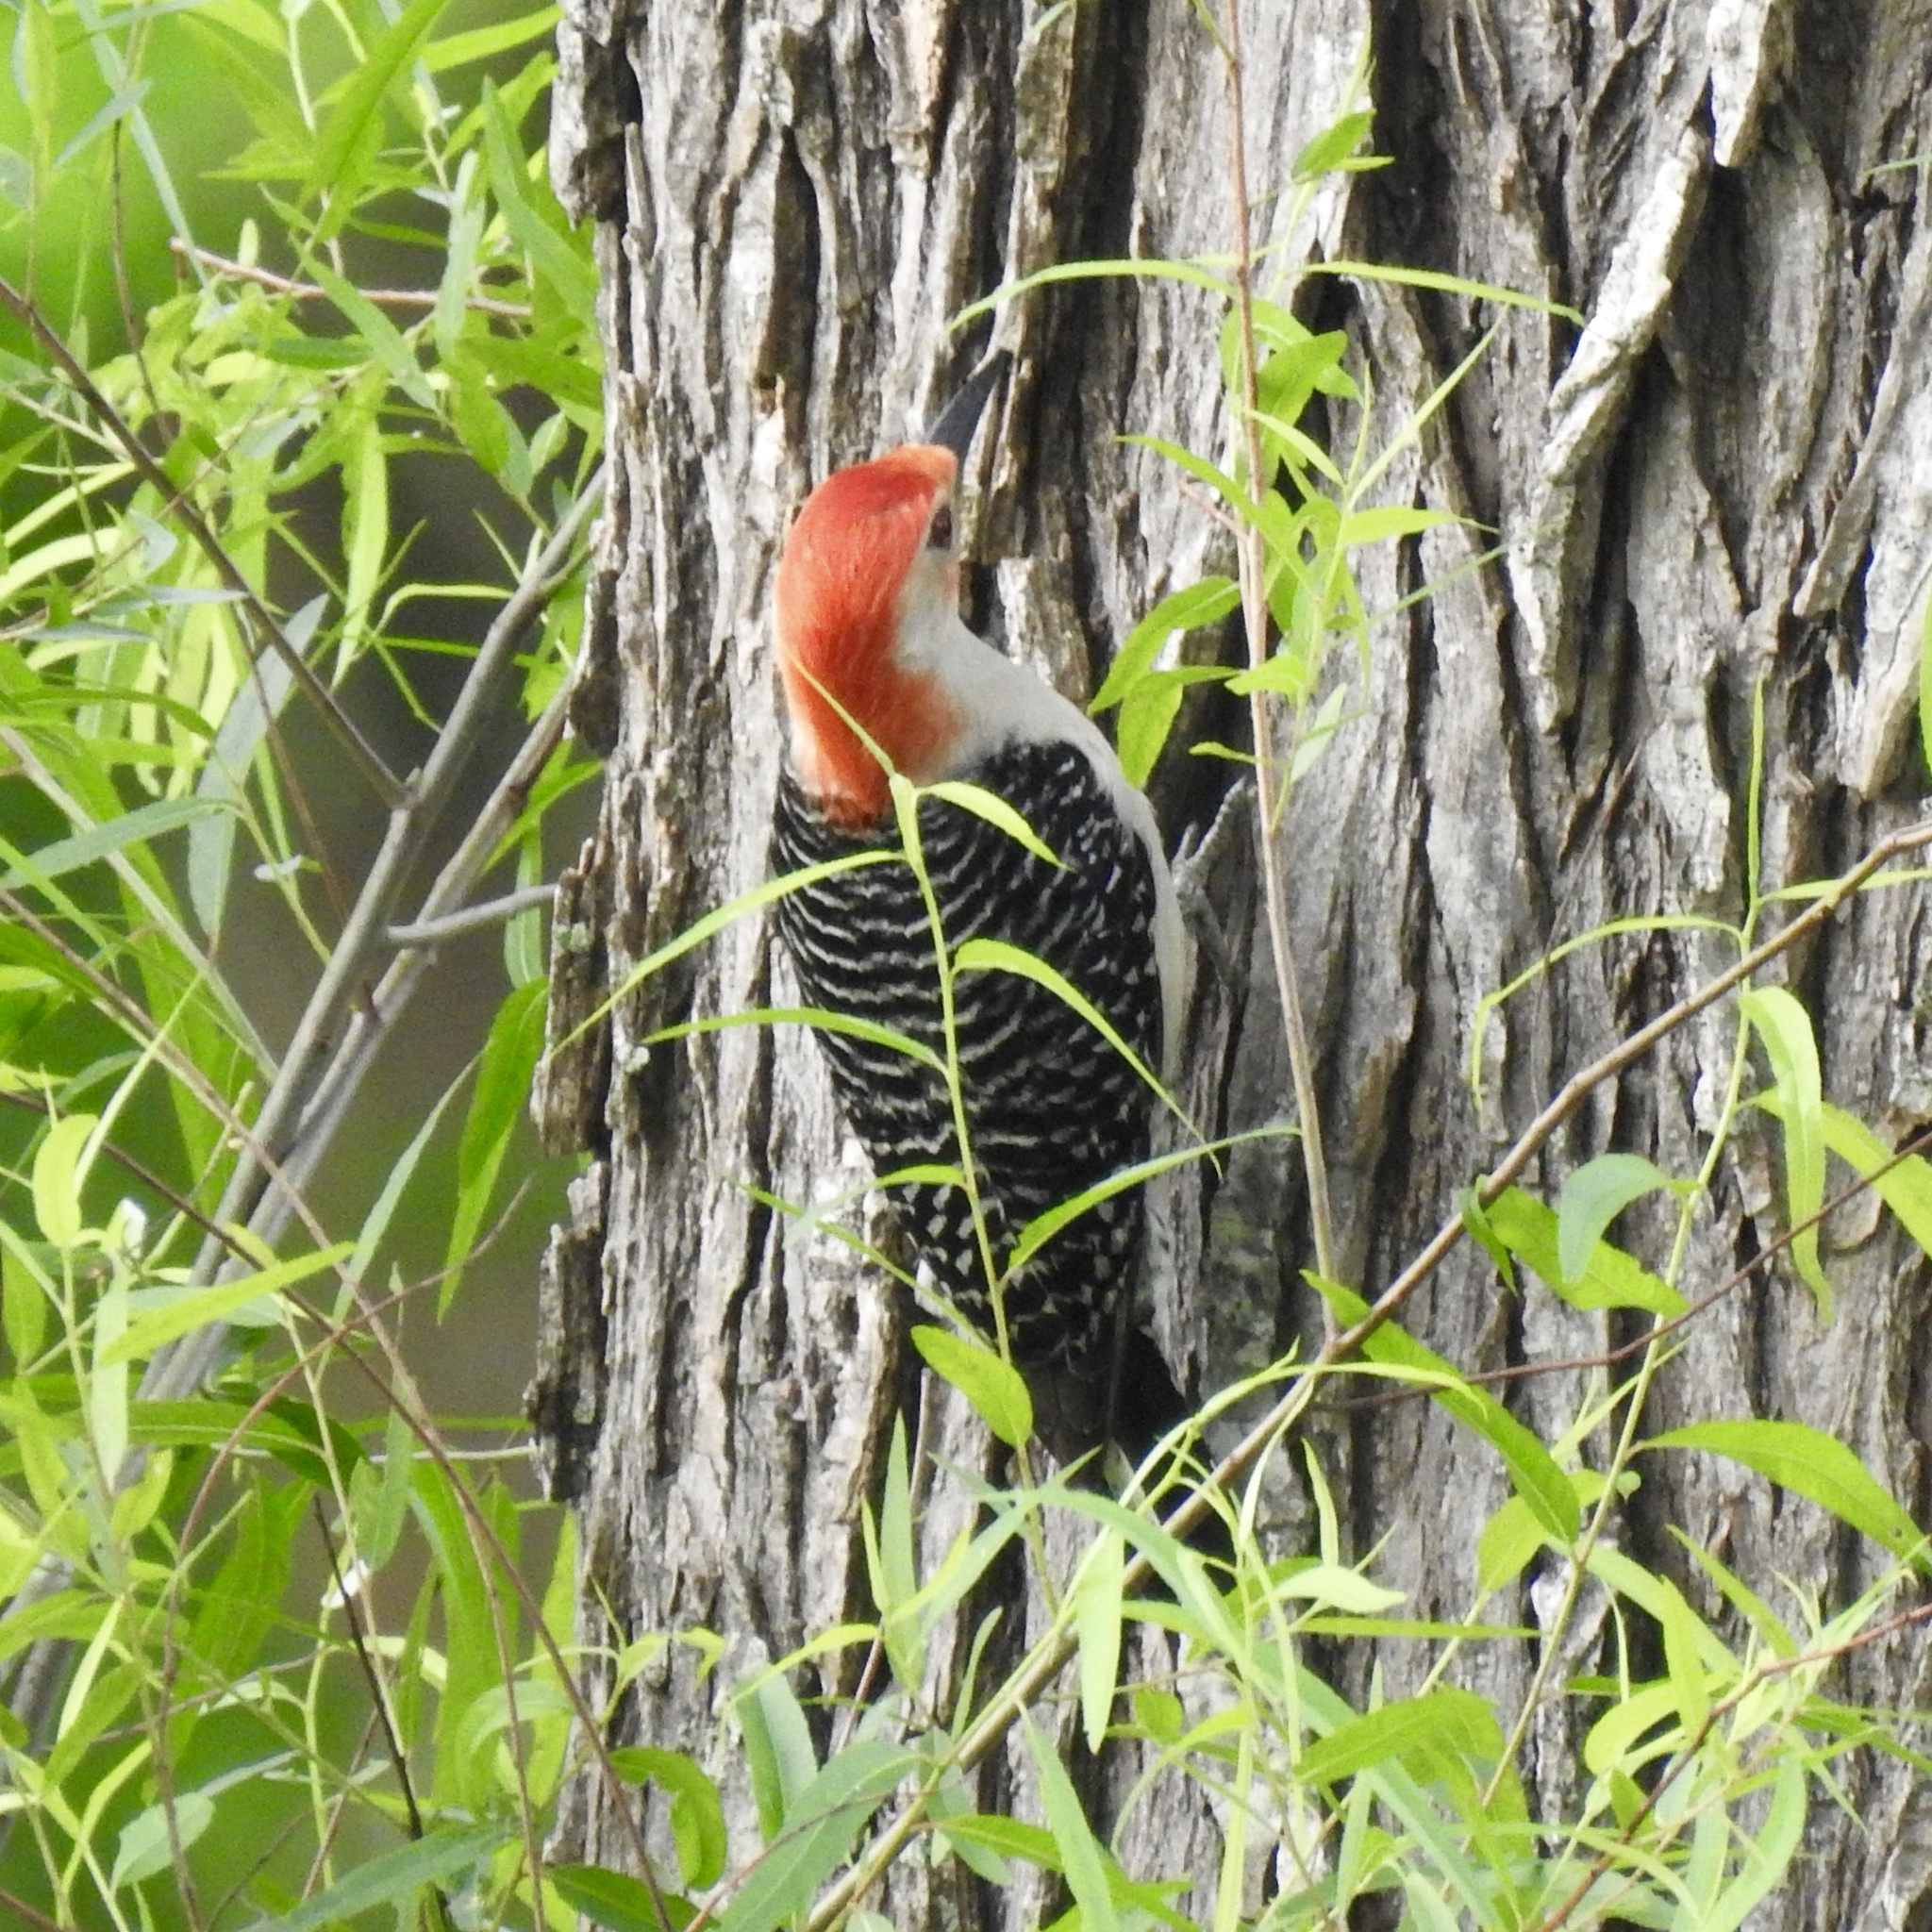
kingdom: Animalia
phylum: Chordata
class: Aves
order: Piciformes
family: Picidae
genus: Melanerpes
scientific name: Melanerpes carolinus
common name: Red-bellied woodpecker
